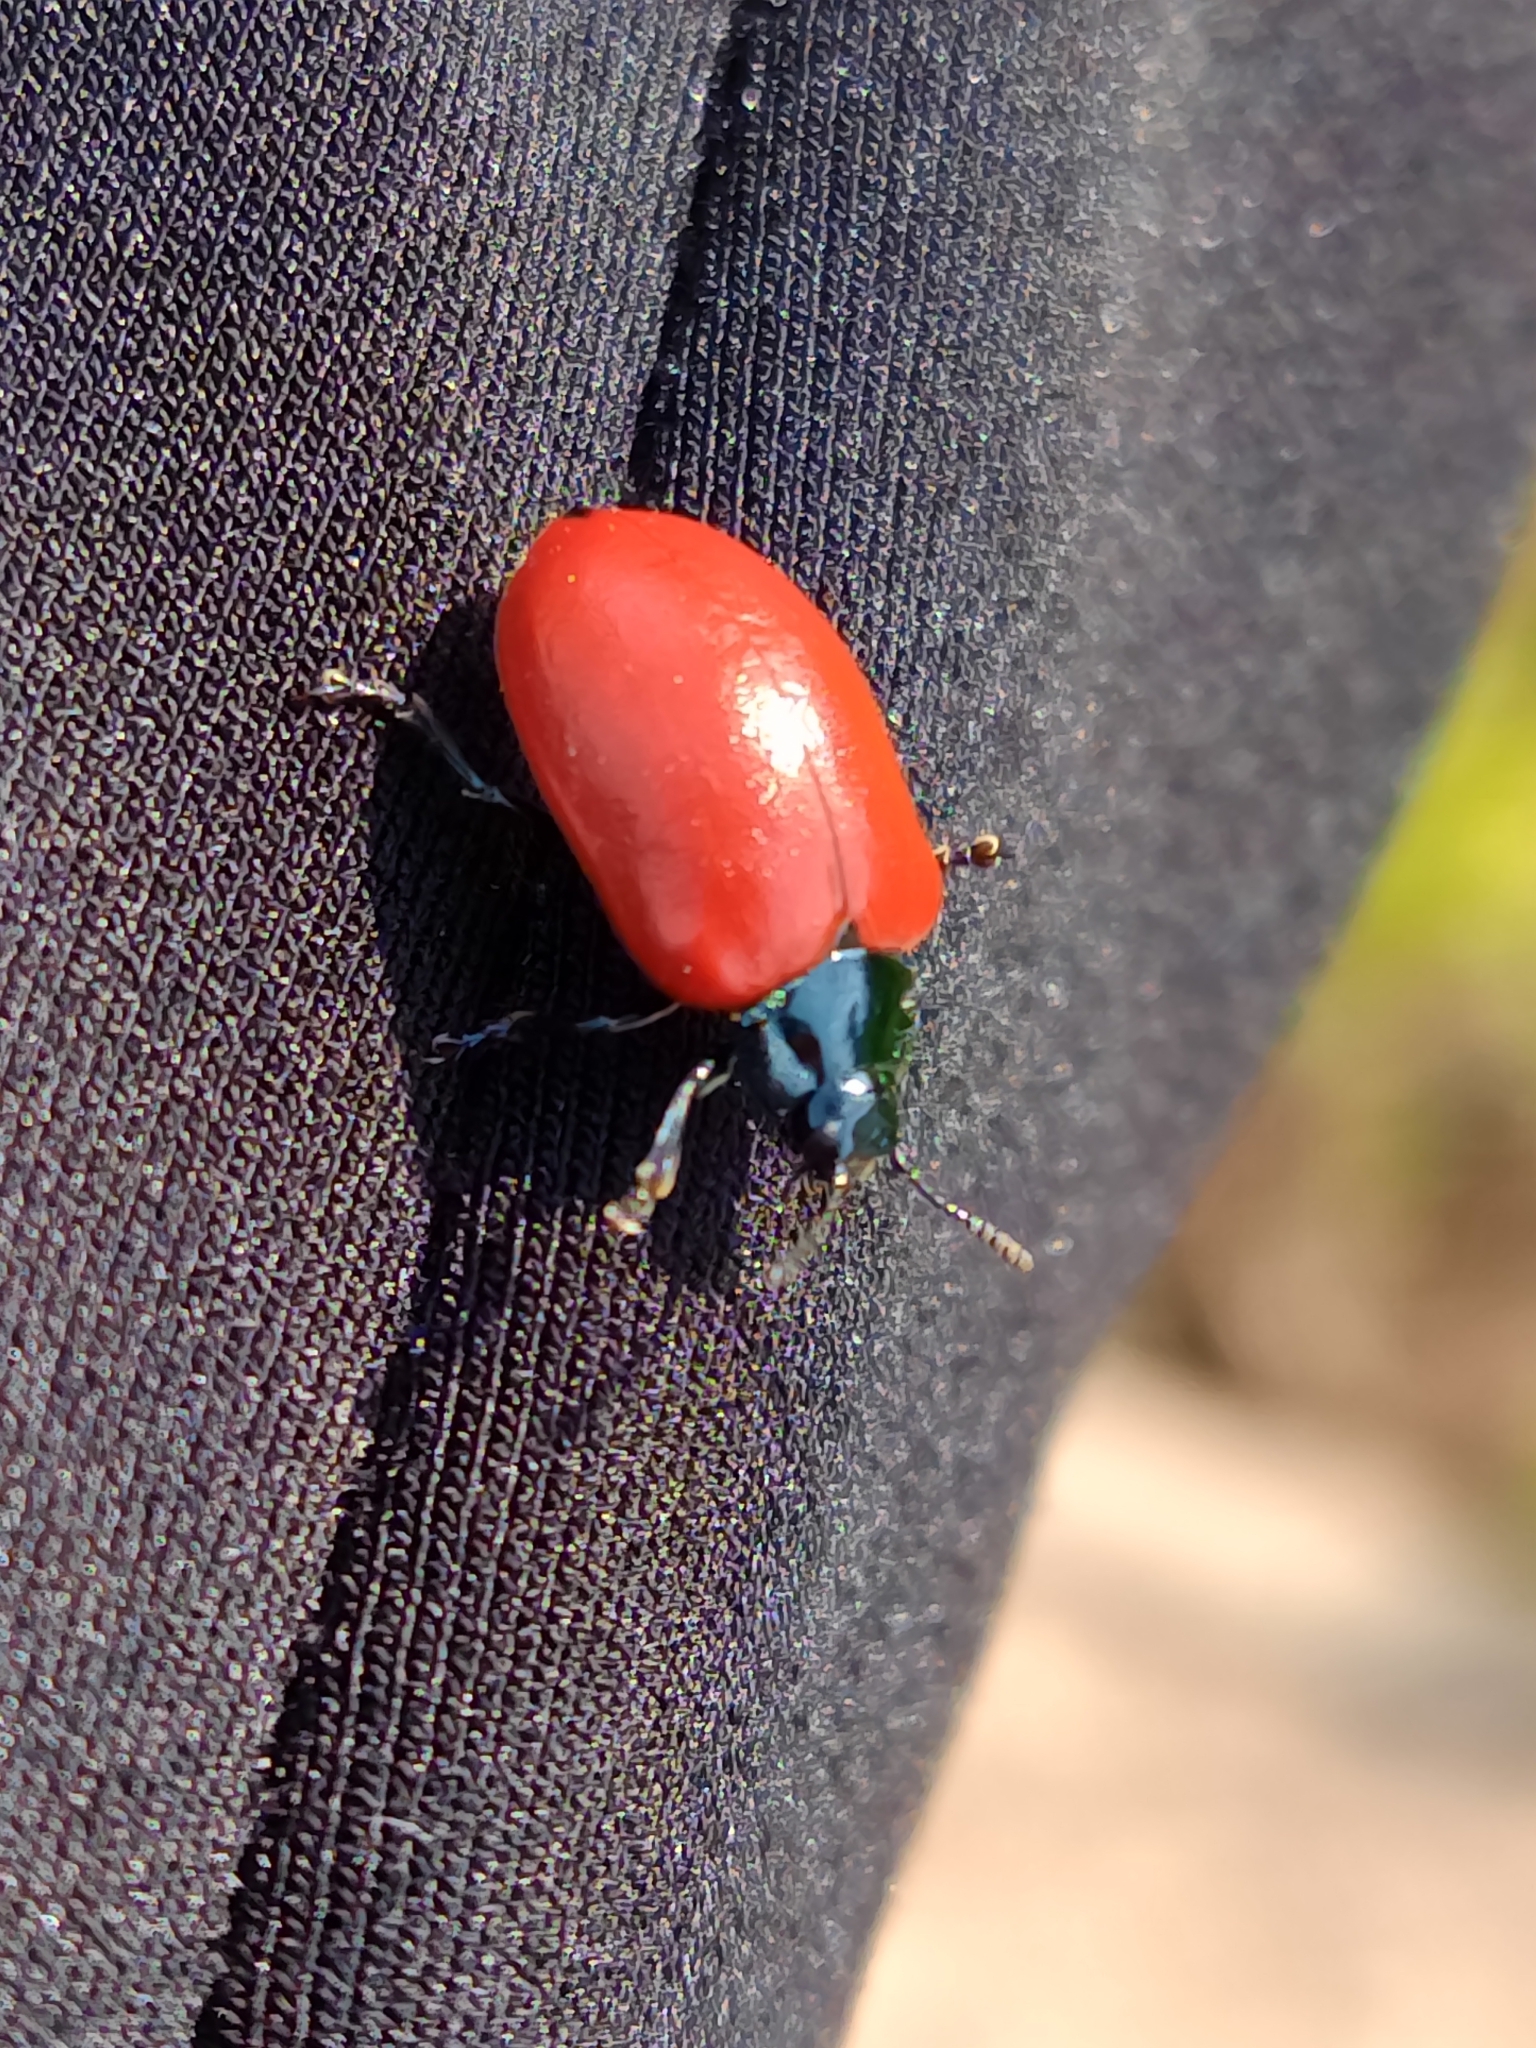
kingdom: Animalia
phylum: Arthropoda
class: Insecta
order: Coleoptera
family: Chrysomelidae
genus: Chrysomela
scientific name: Chrysomela populi
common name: Red poplar leaf beetle
